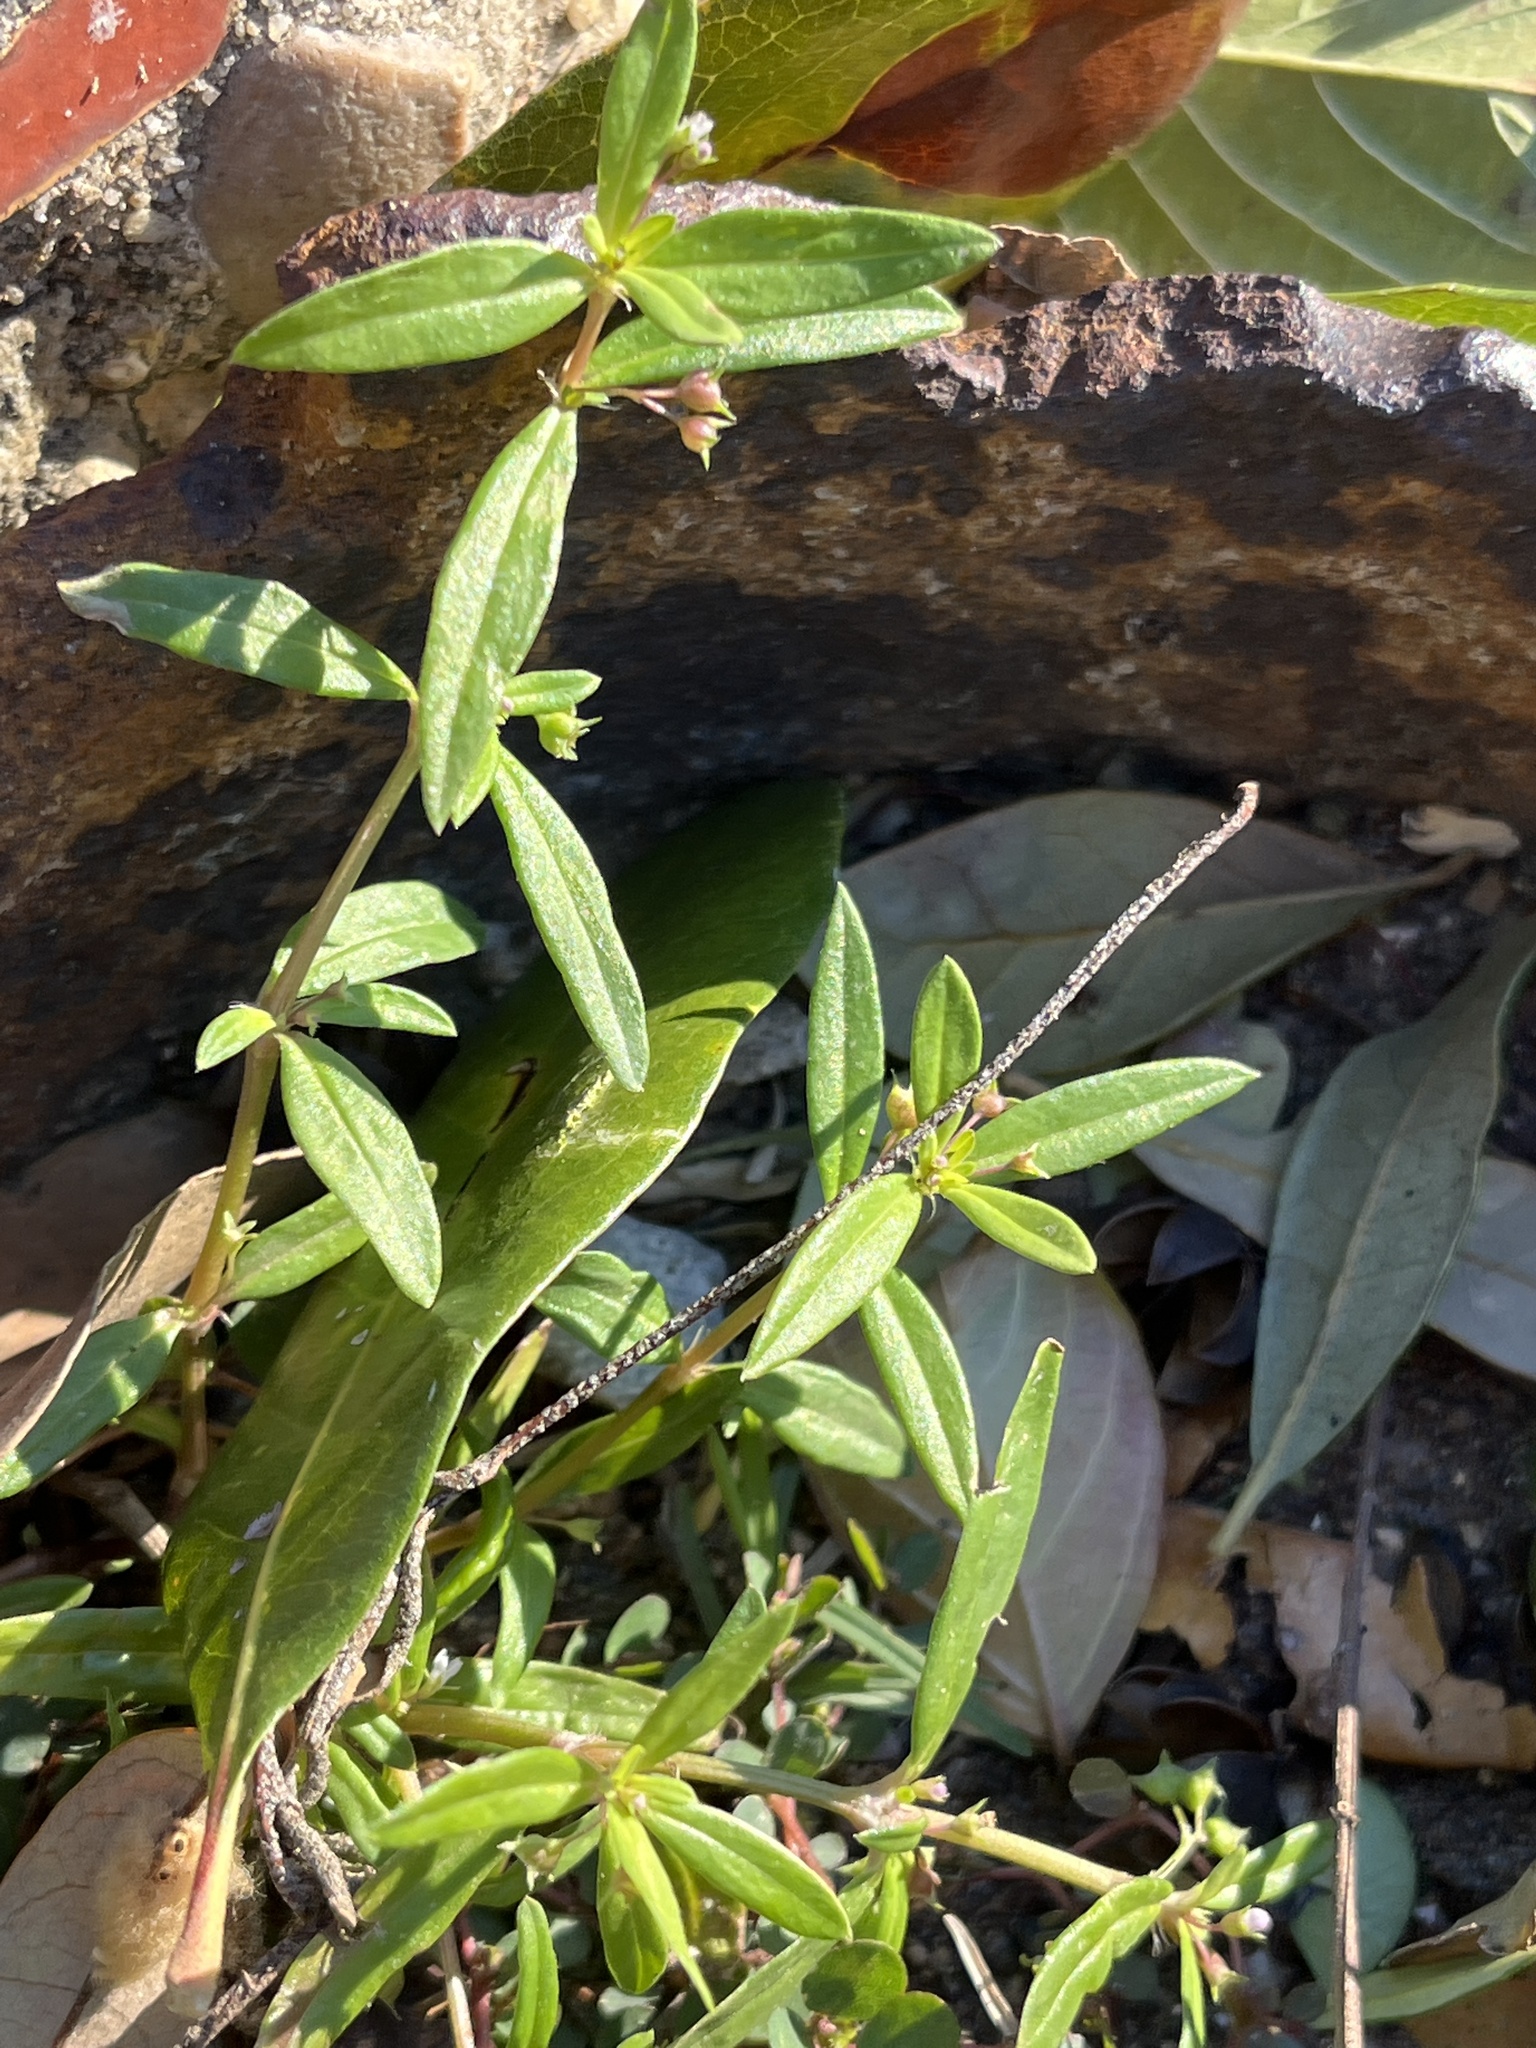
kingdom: Plantae
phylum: Tracheophyta
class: Magnoliopsida
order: Gentianales
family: Rubiaceae
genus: Oldenlandia
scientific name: Oldenlandia corymbosa
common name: Flat-top mille graines
